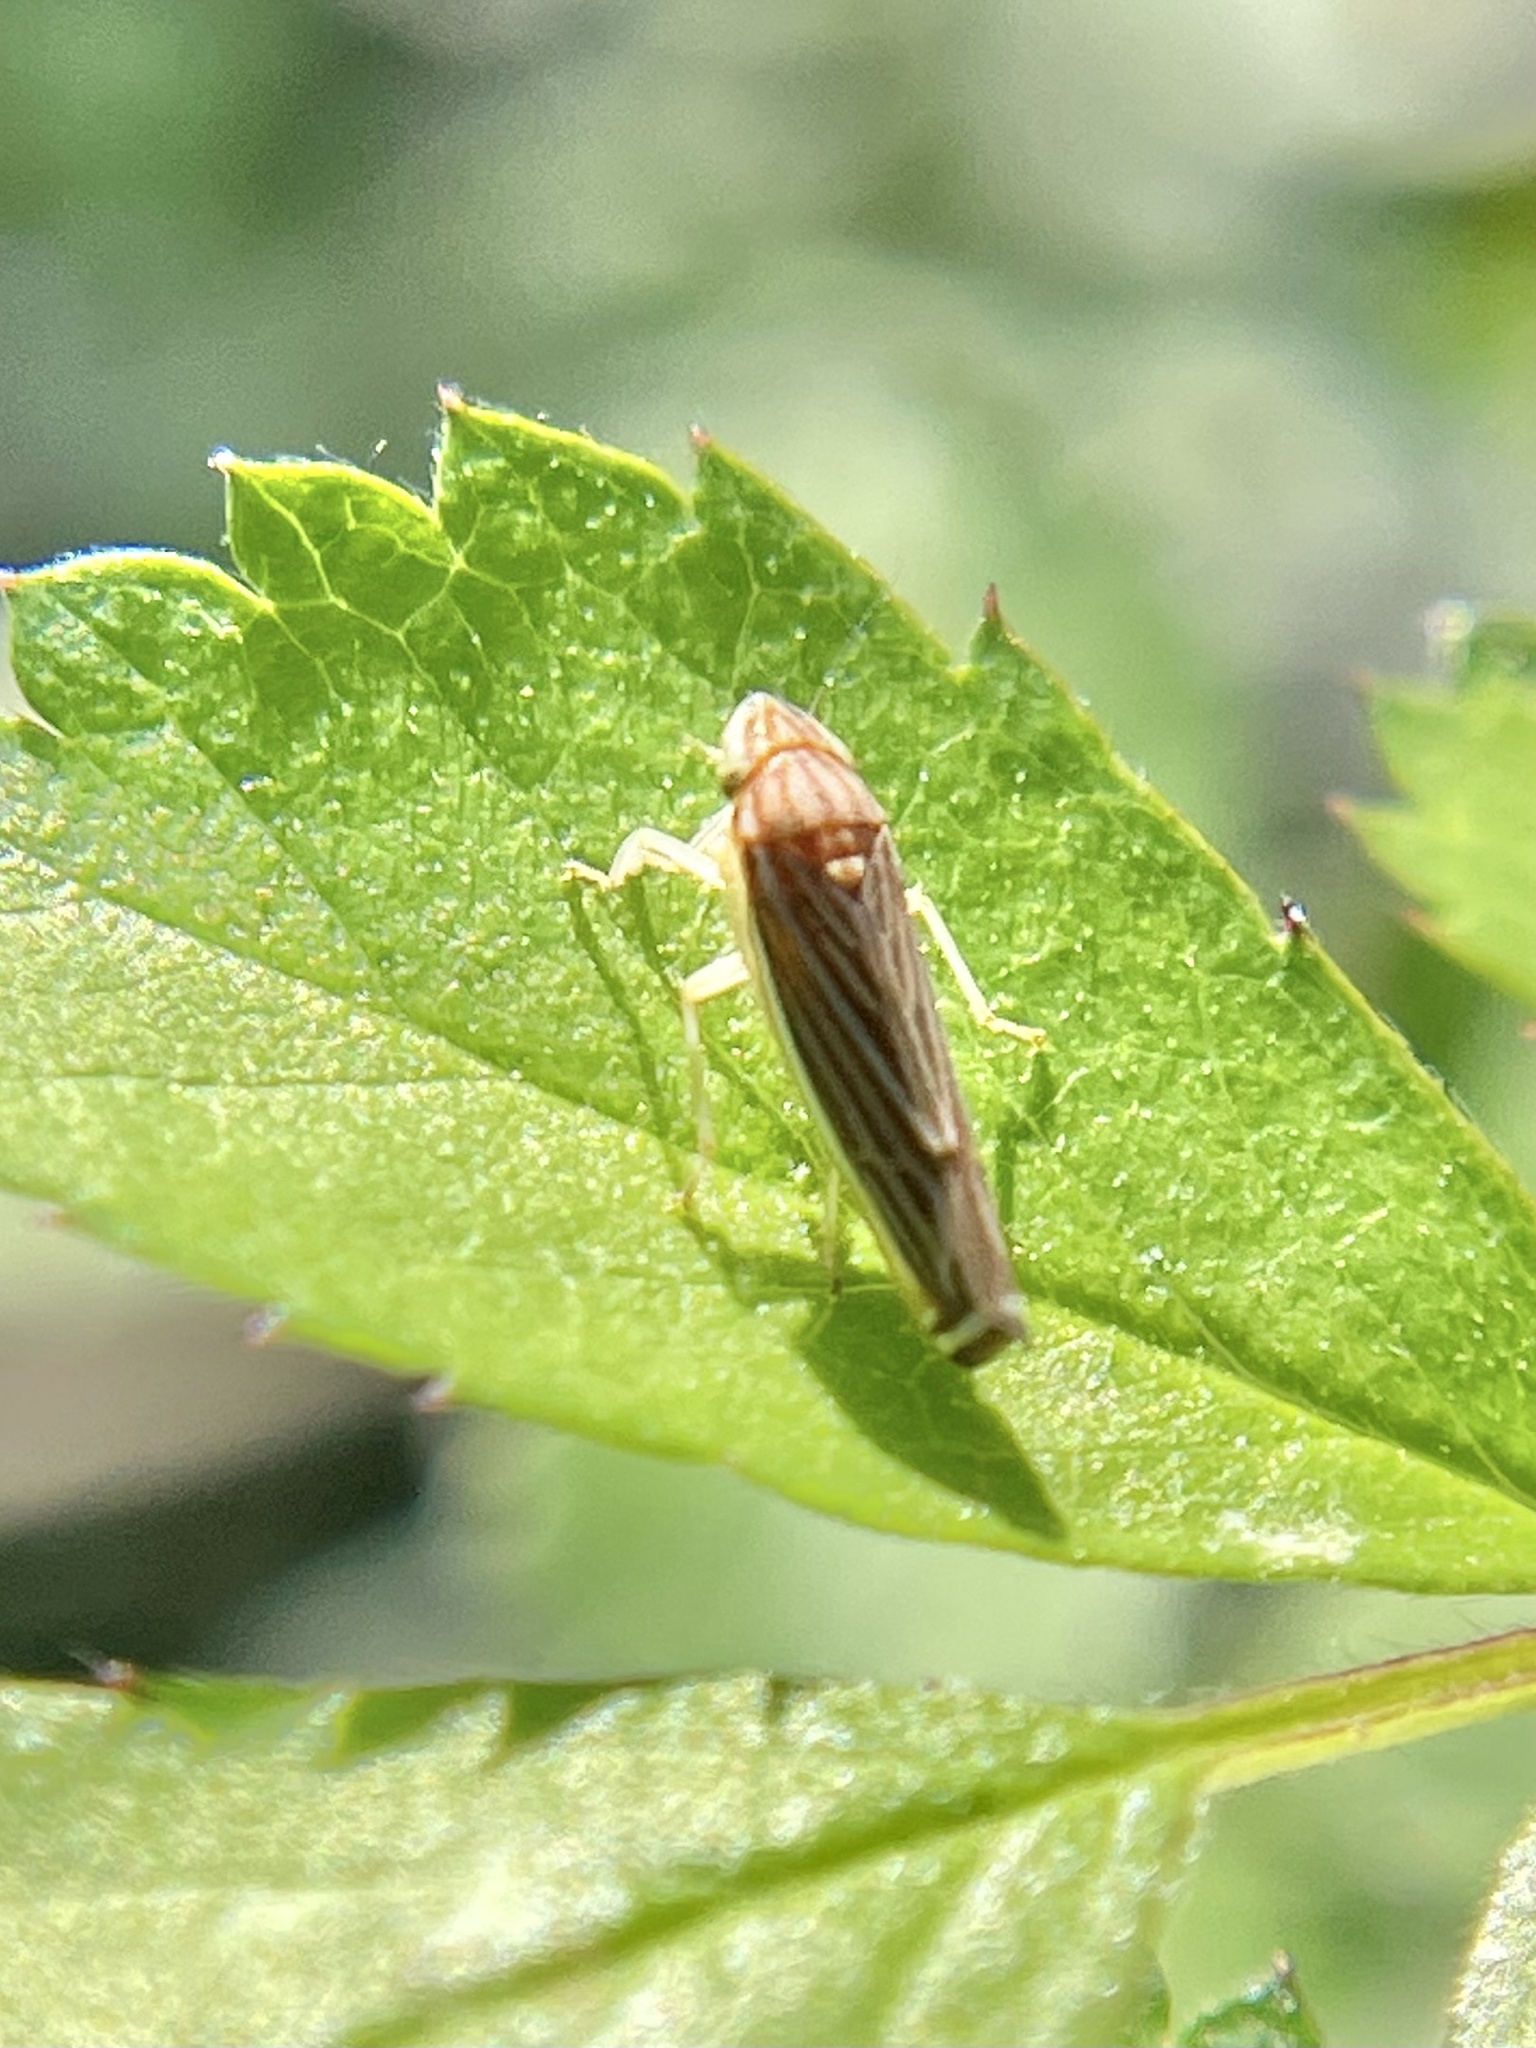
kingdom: Animalia
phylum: Arthropoda
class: Insecta
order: Hemiptera
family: Cicadellidae
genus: Sibovia
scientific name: Sibovia occatoria
